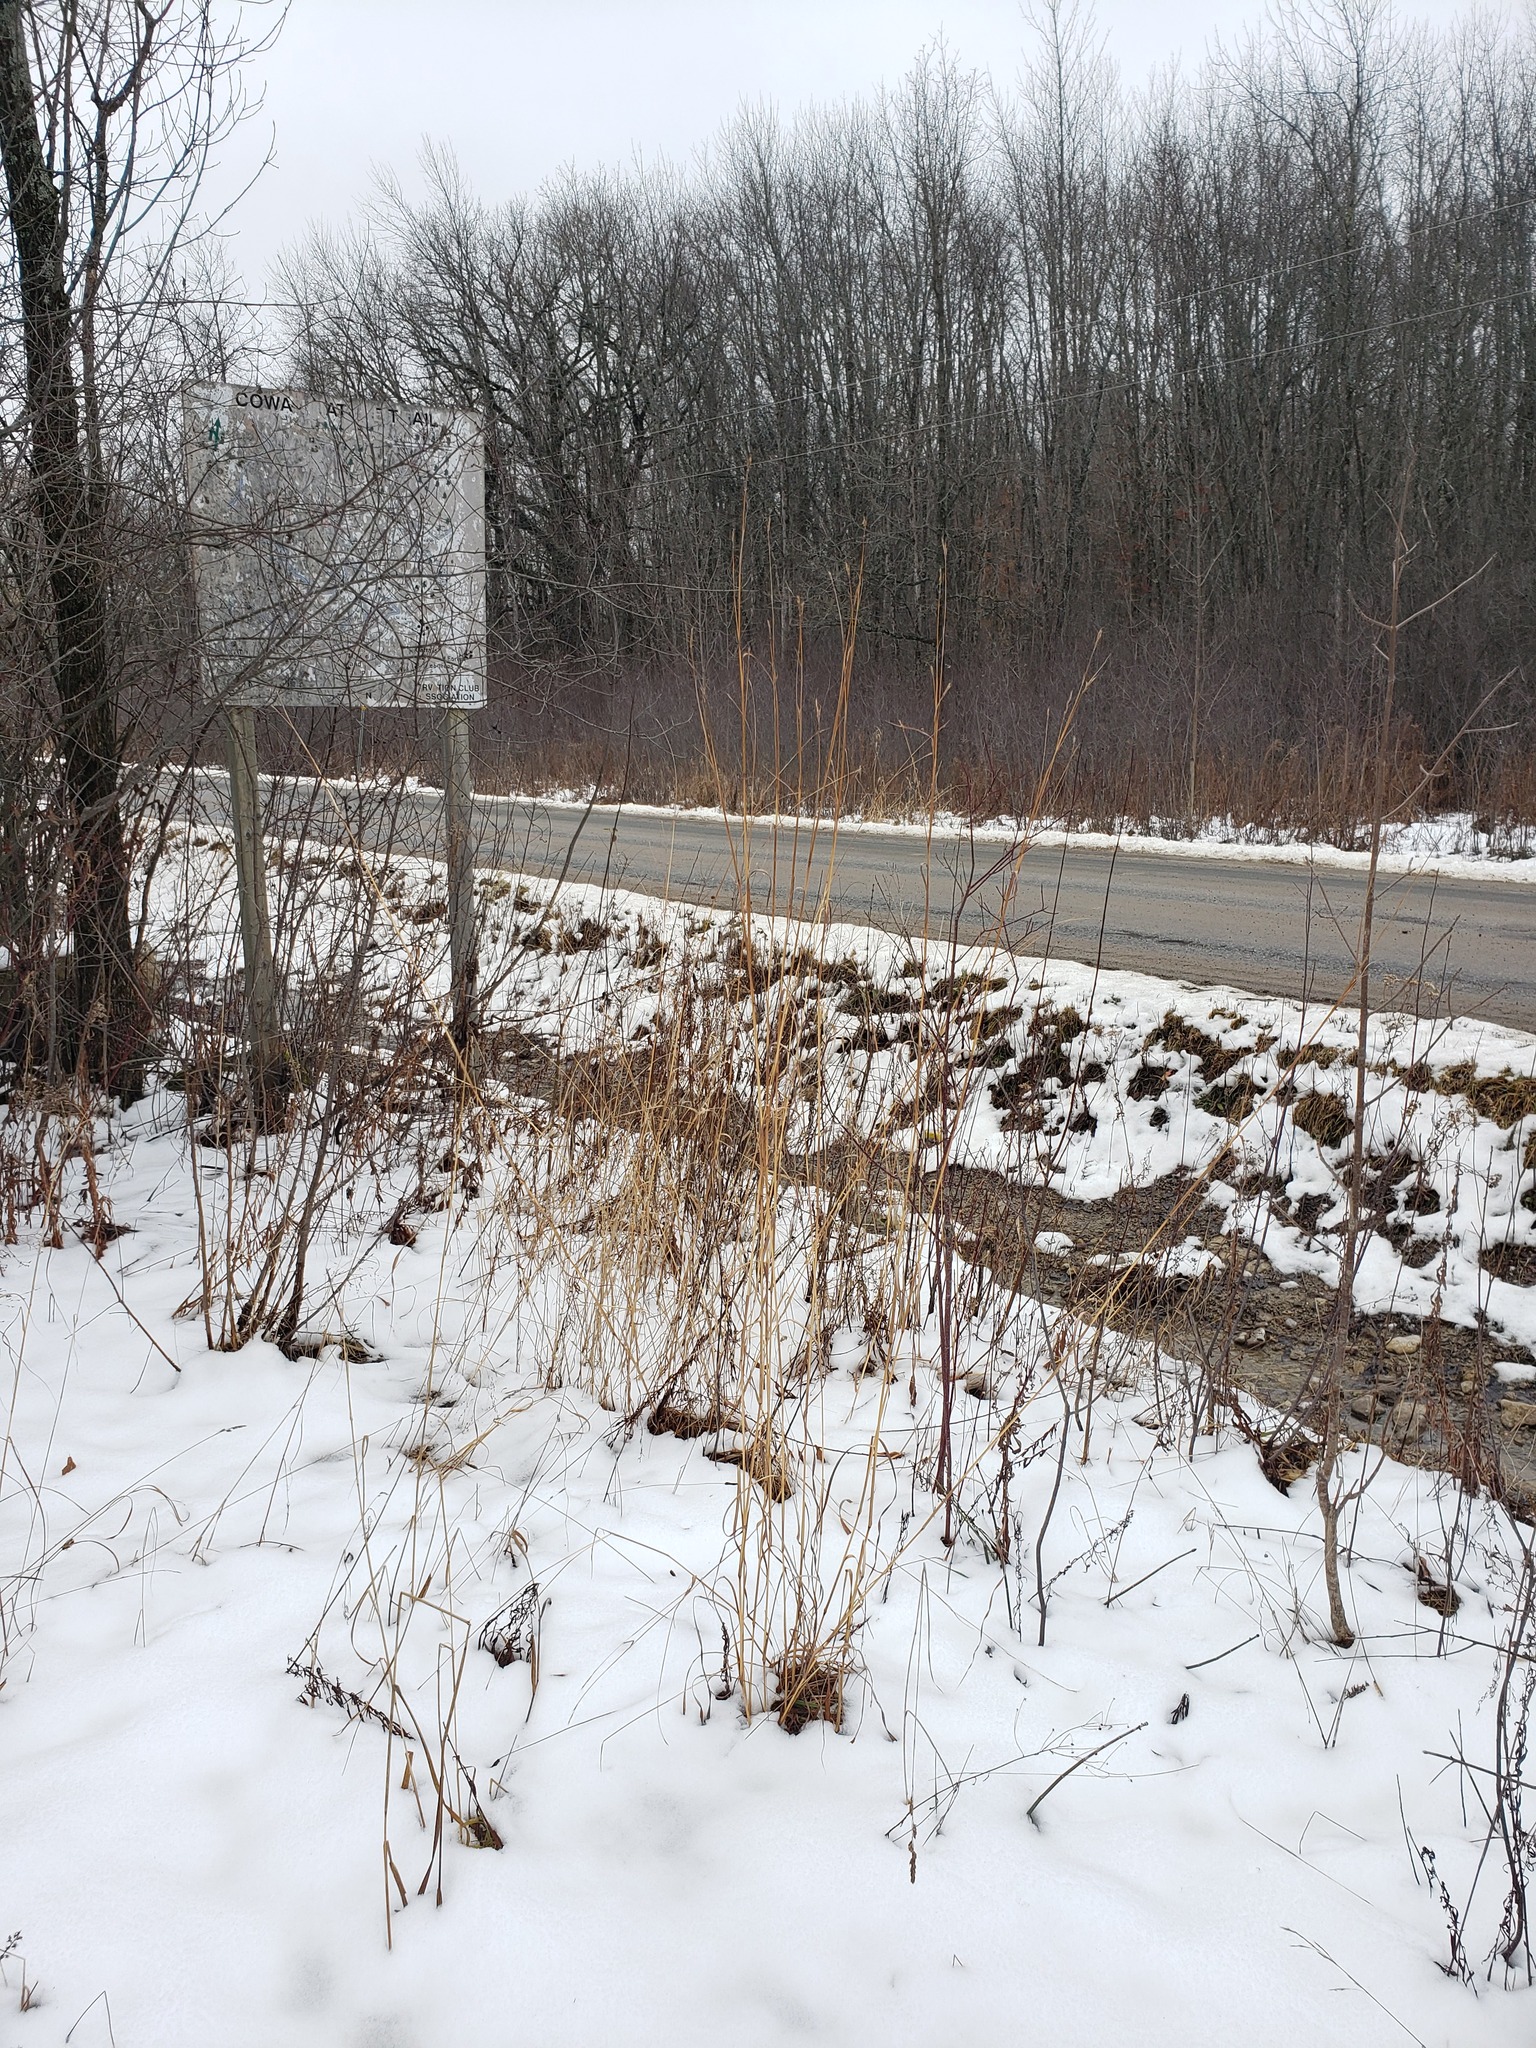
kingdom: Plantae
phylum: Tracheophyta
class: Liliopsida
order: Poales
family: Poaceae
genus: Andropogon
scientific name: Andropogon gerardi
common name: Big bluestem
